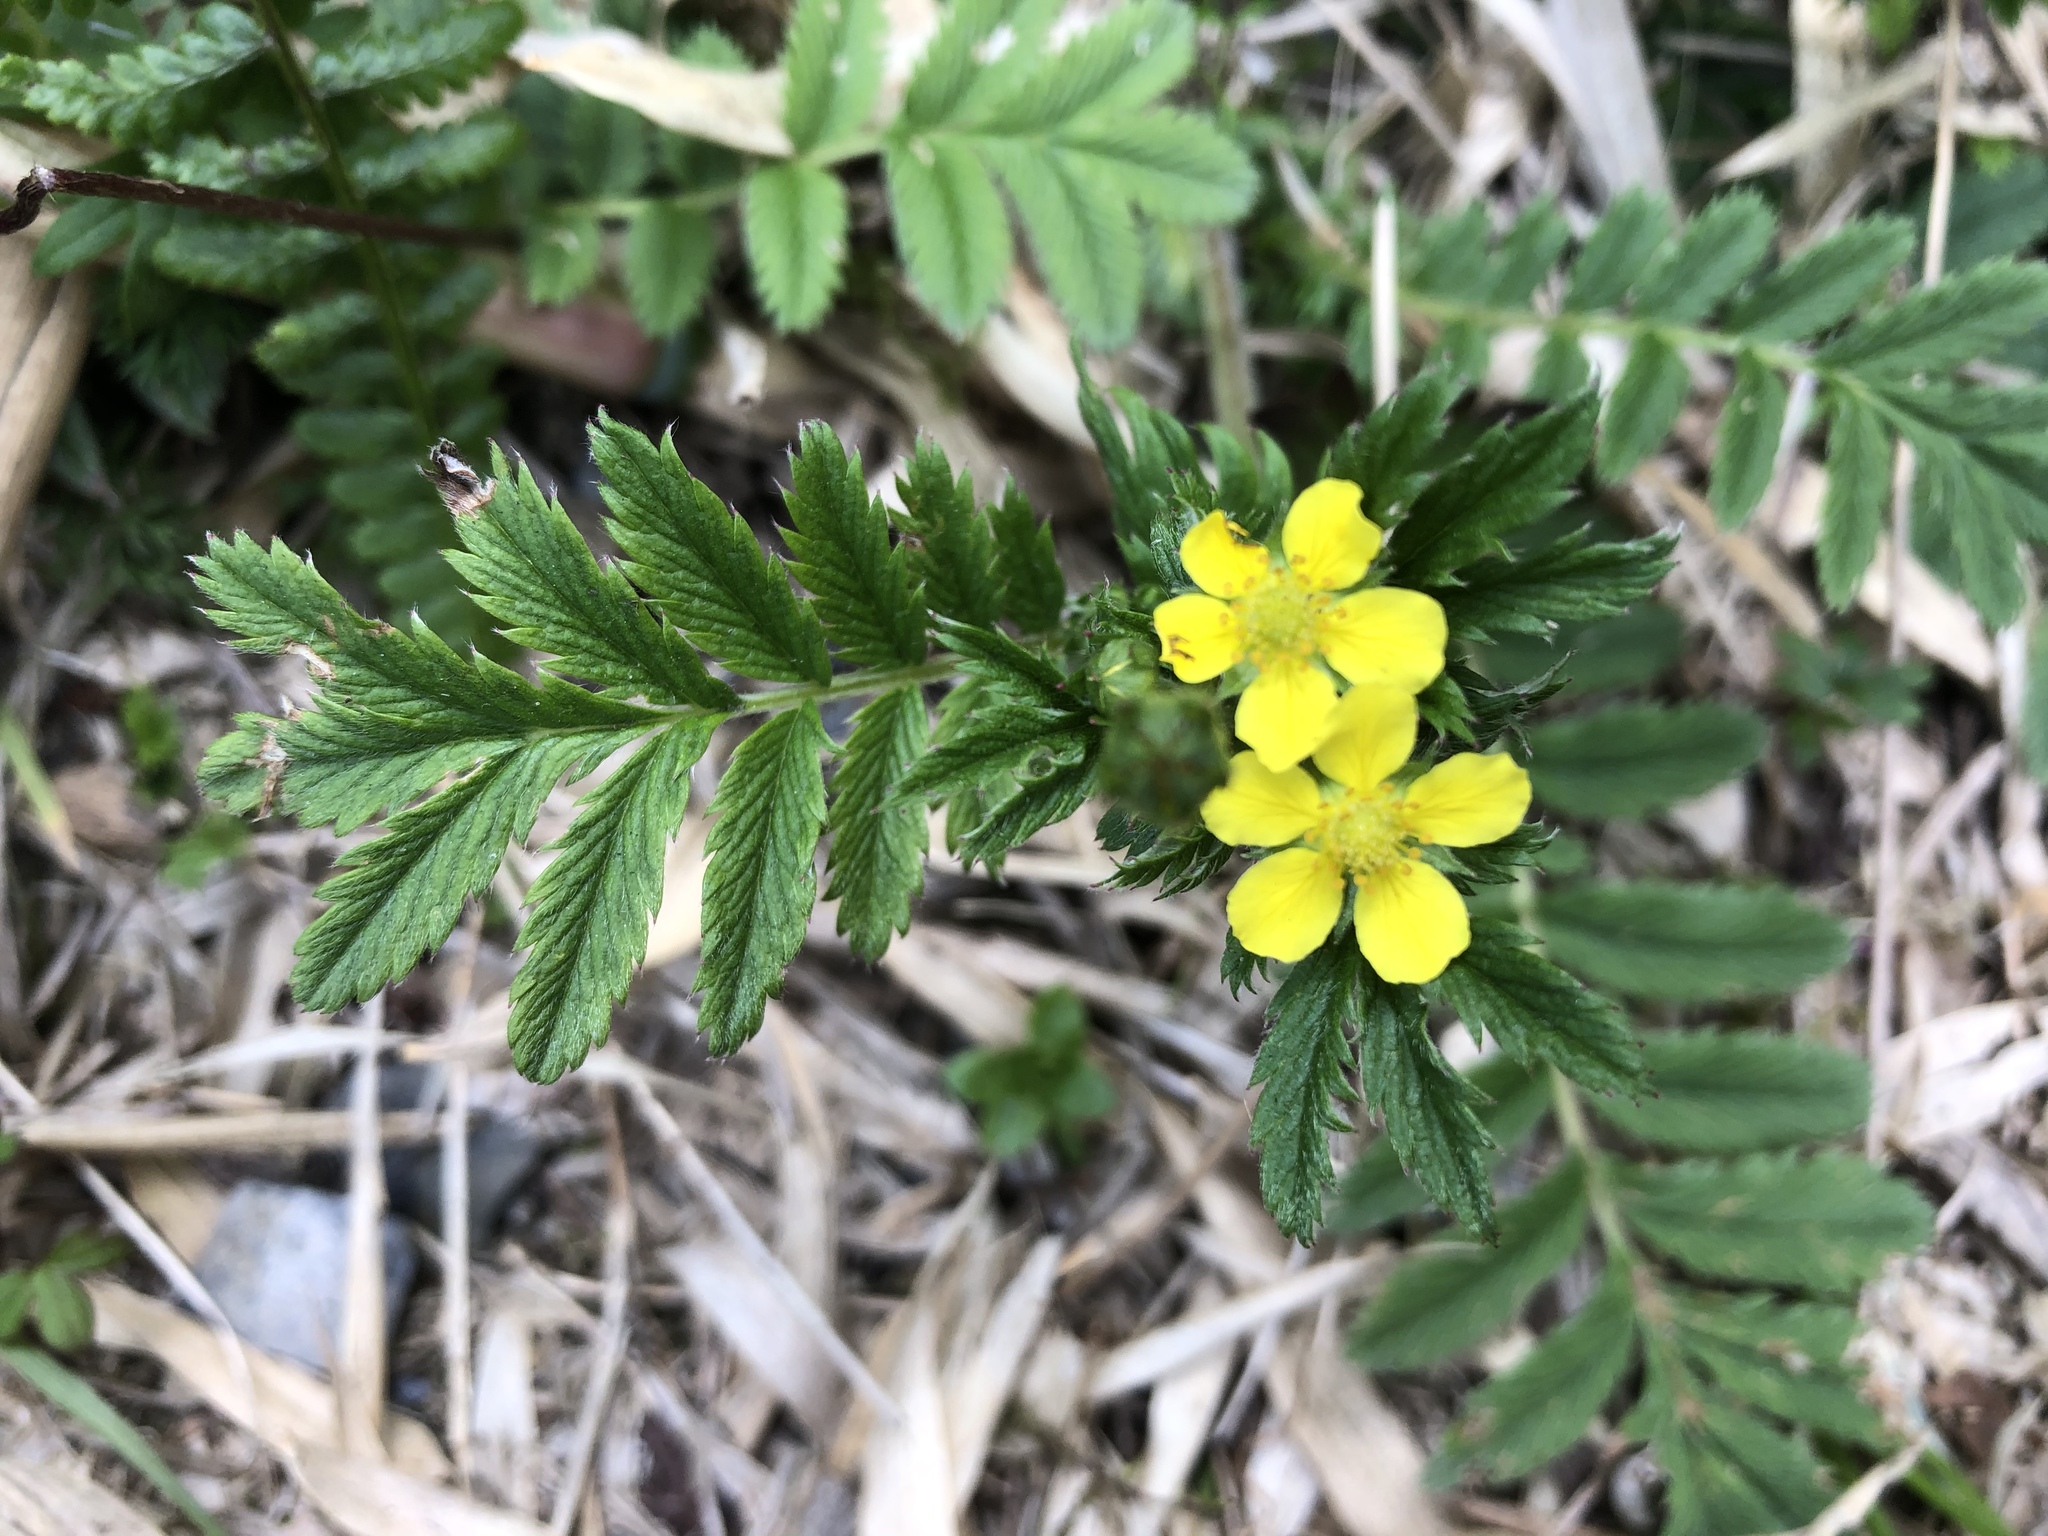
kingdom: Plantae
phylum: Tracheophyta
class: Magnoliopsida
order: Rosales
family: Rosaceae
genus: Argentina
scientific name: Argentina leuconota
